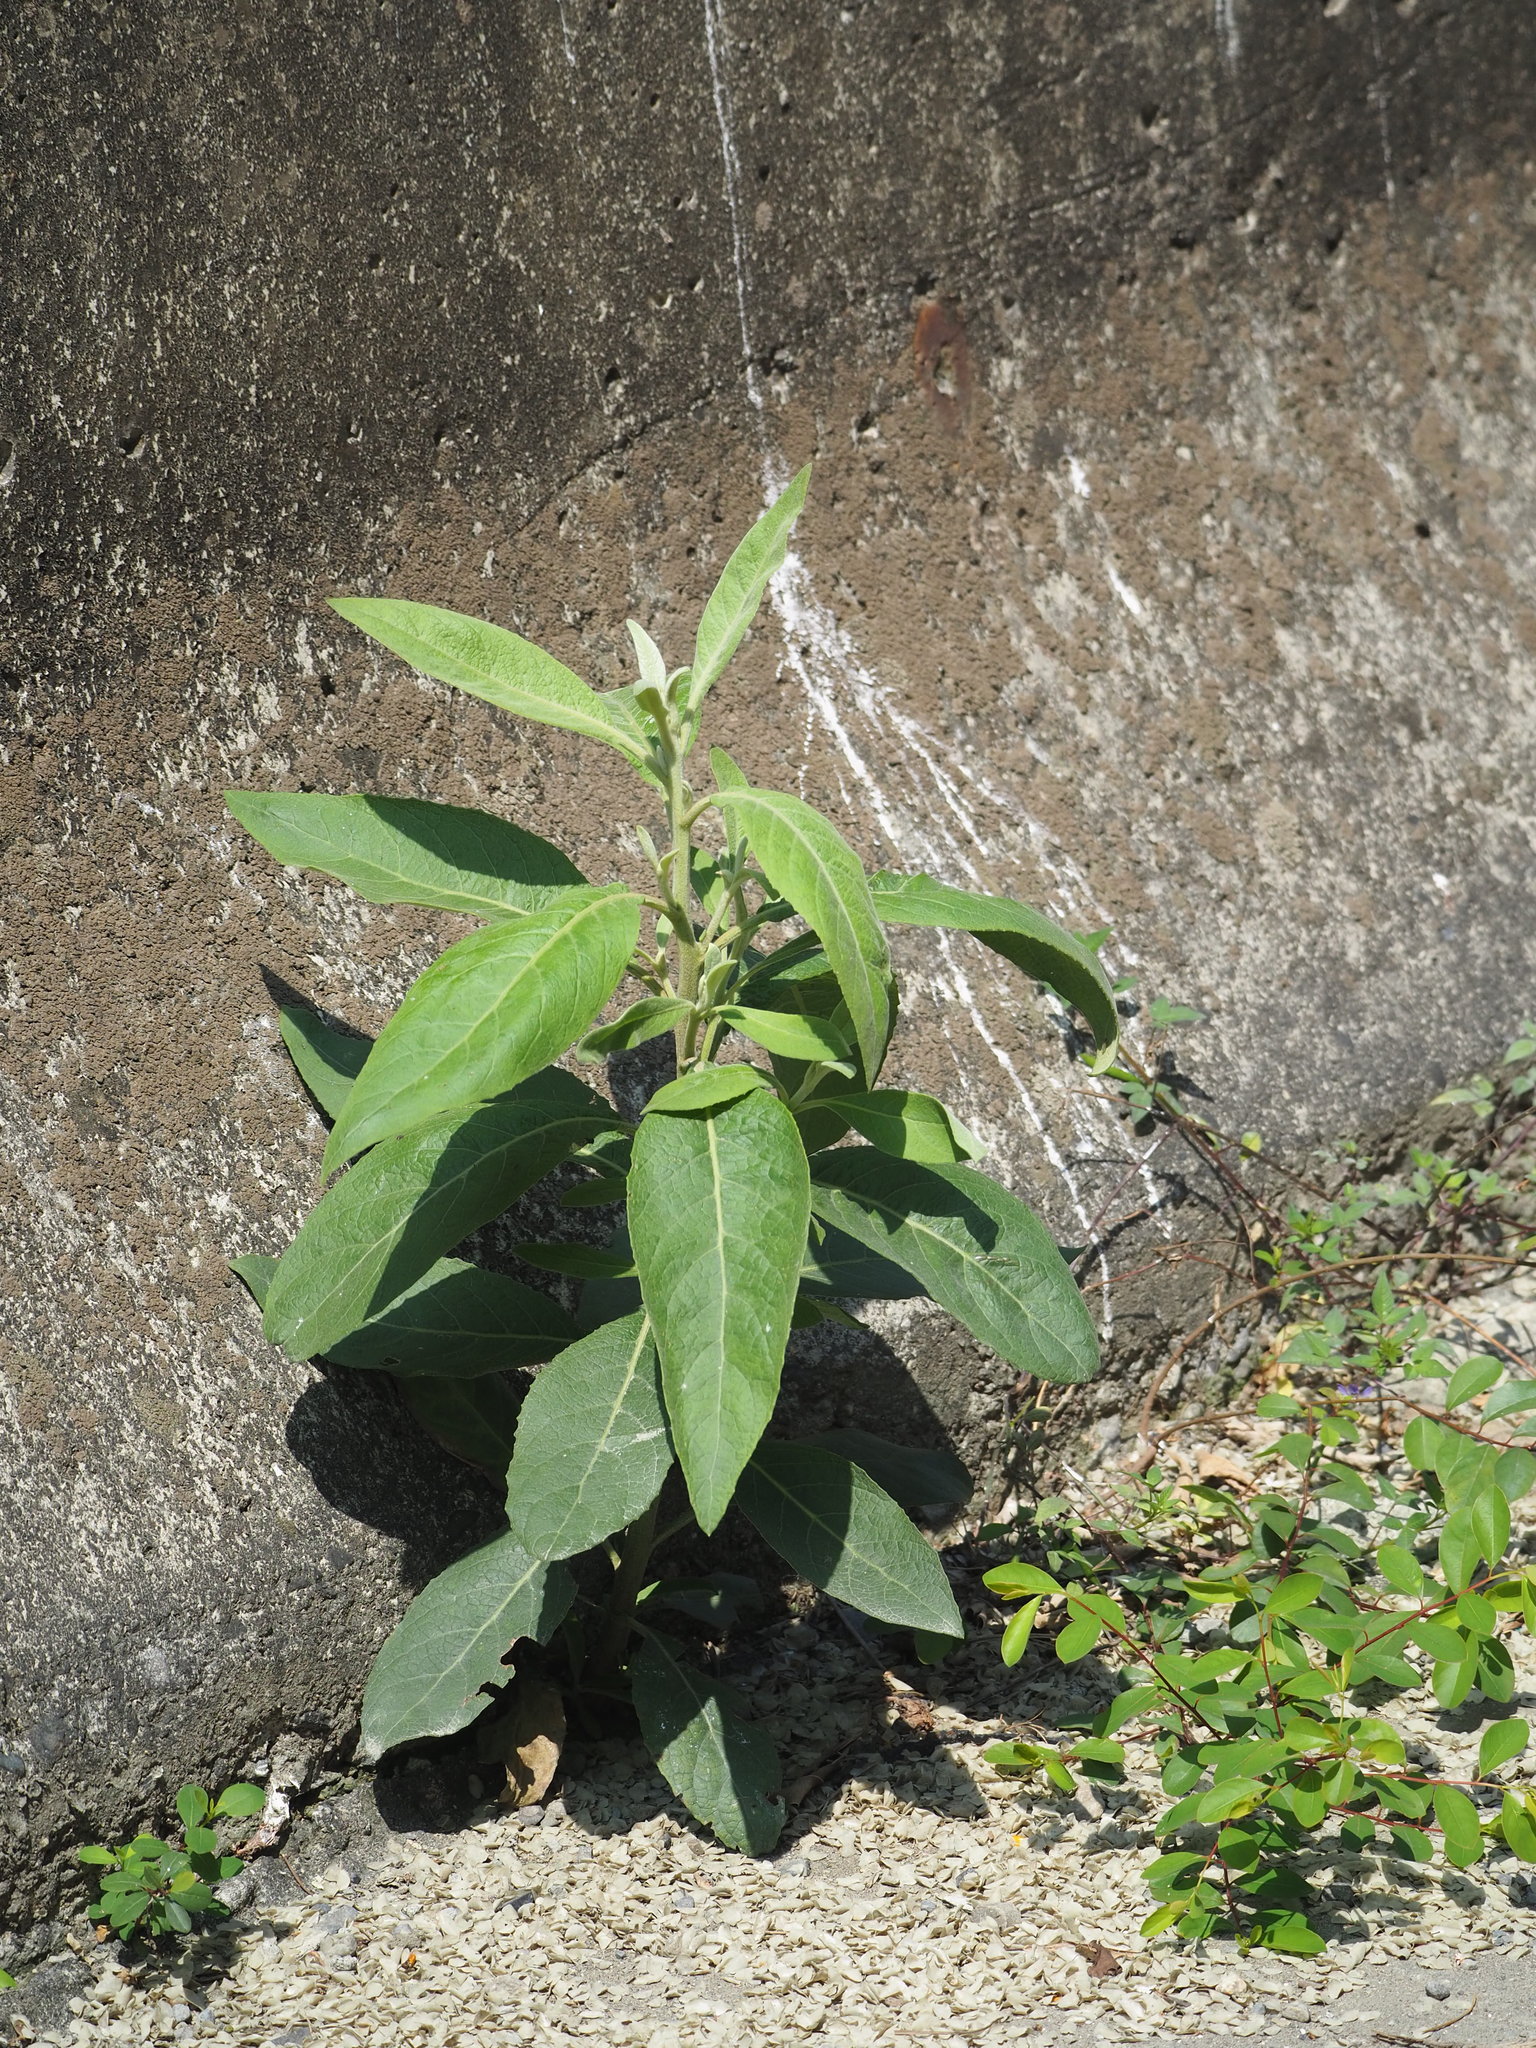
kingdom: Plantae
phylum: Tracheophyta
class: Magnoliopsida
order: Asterales
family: Asteraceae
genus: Pluchea
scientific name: Pluchea carolinensis
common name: Marsh fleabane
